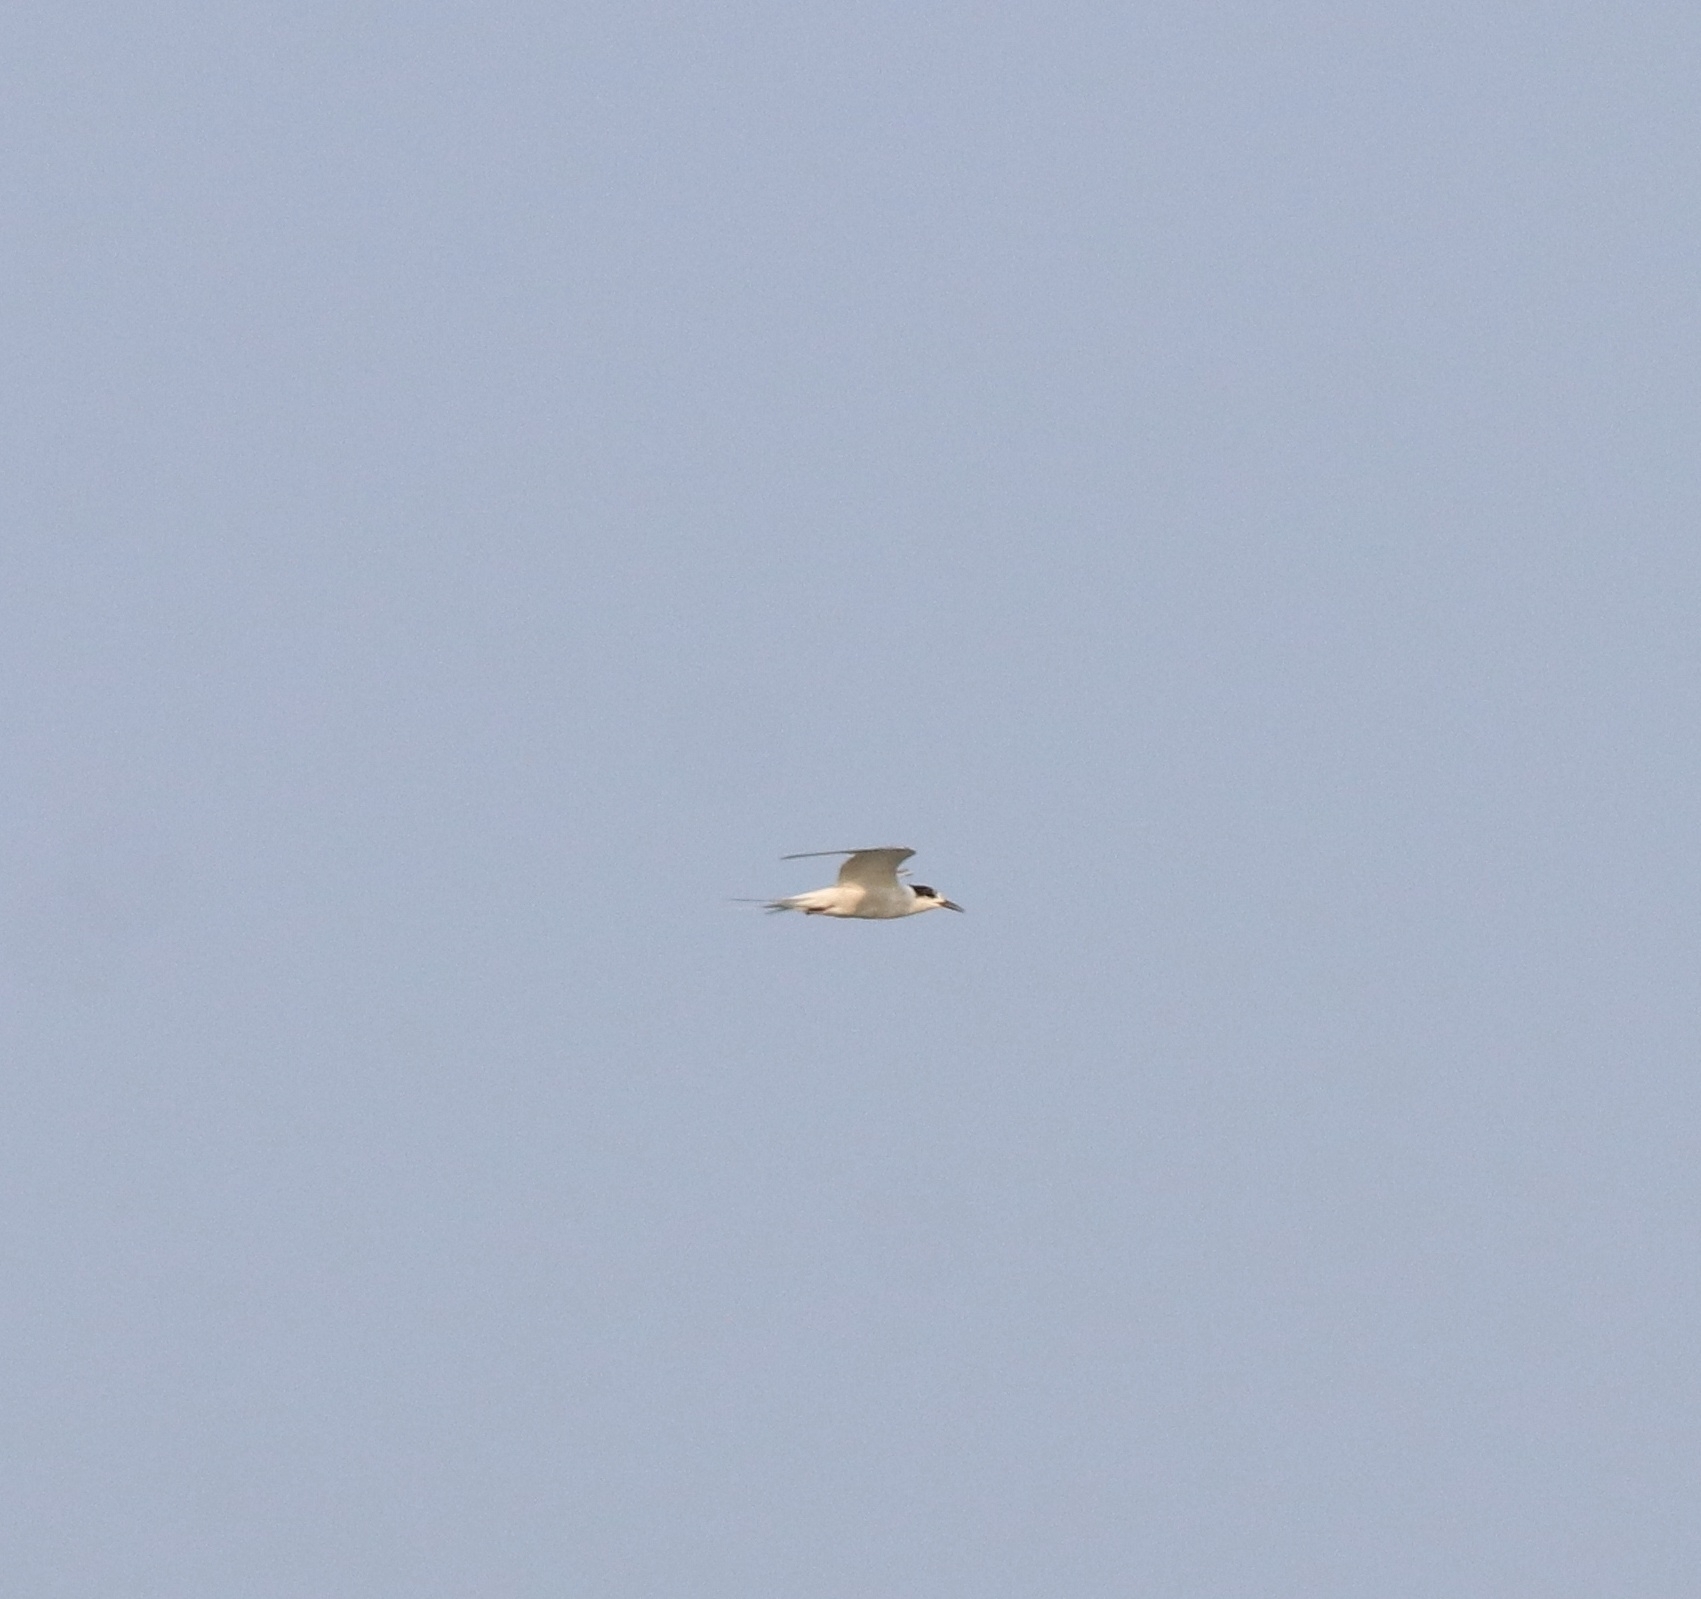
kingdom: Animalia
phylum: Chordata
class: Aves
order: Charadriiformes
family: Laridae
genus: Sterna
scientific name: Sterna hirundo
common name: Common tern
